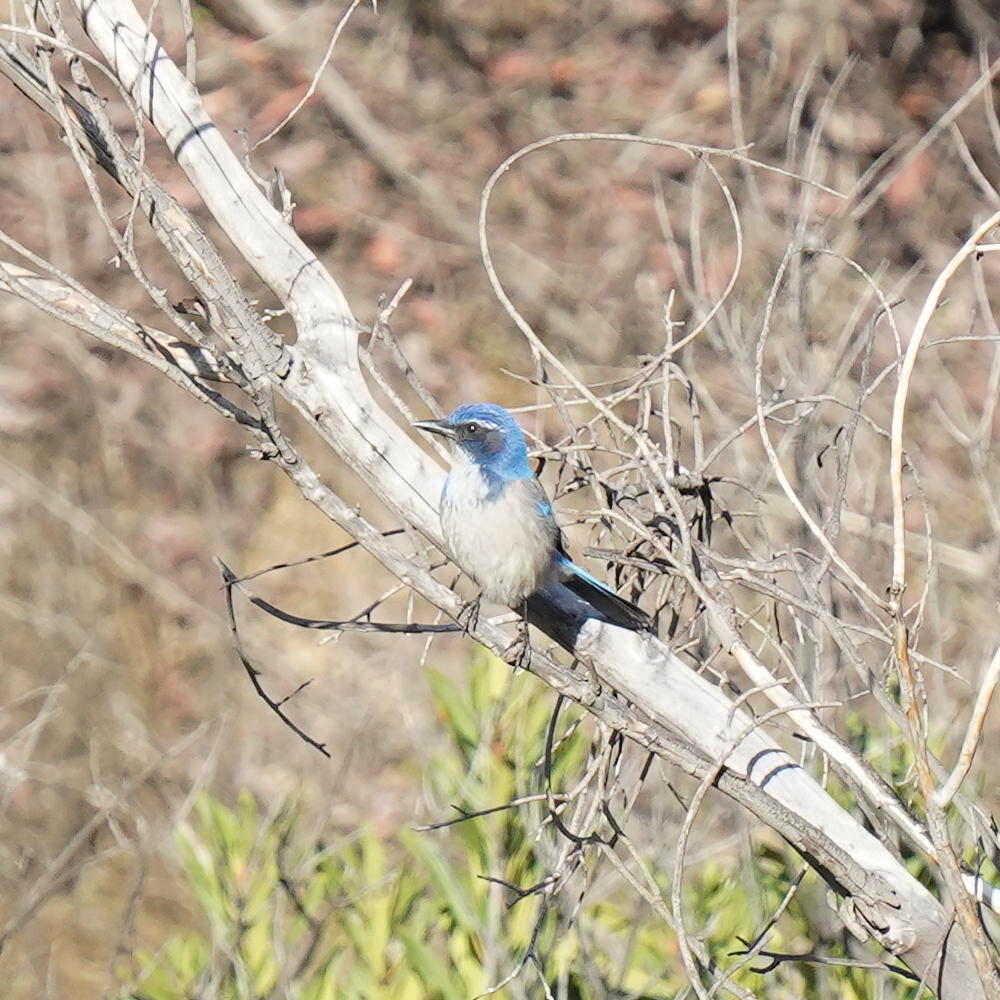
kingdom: Animalia
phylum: Chordata
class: Aves
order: Passeriformes
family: Corvidae
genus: Aphelocoma
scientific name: Aphelocoma californica
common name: California scrub-jay
